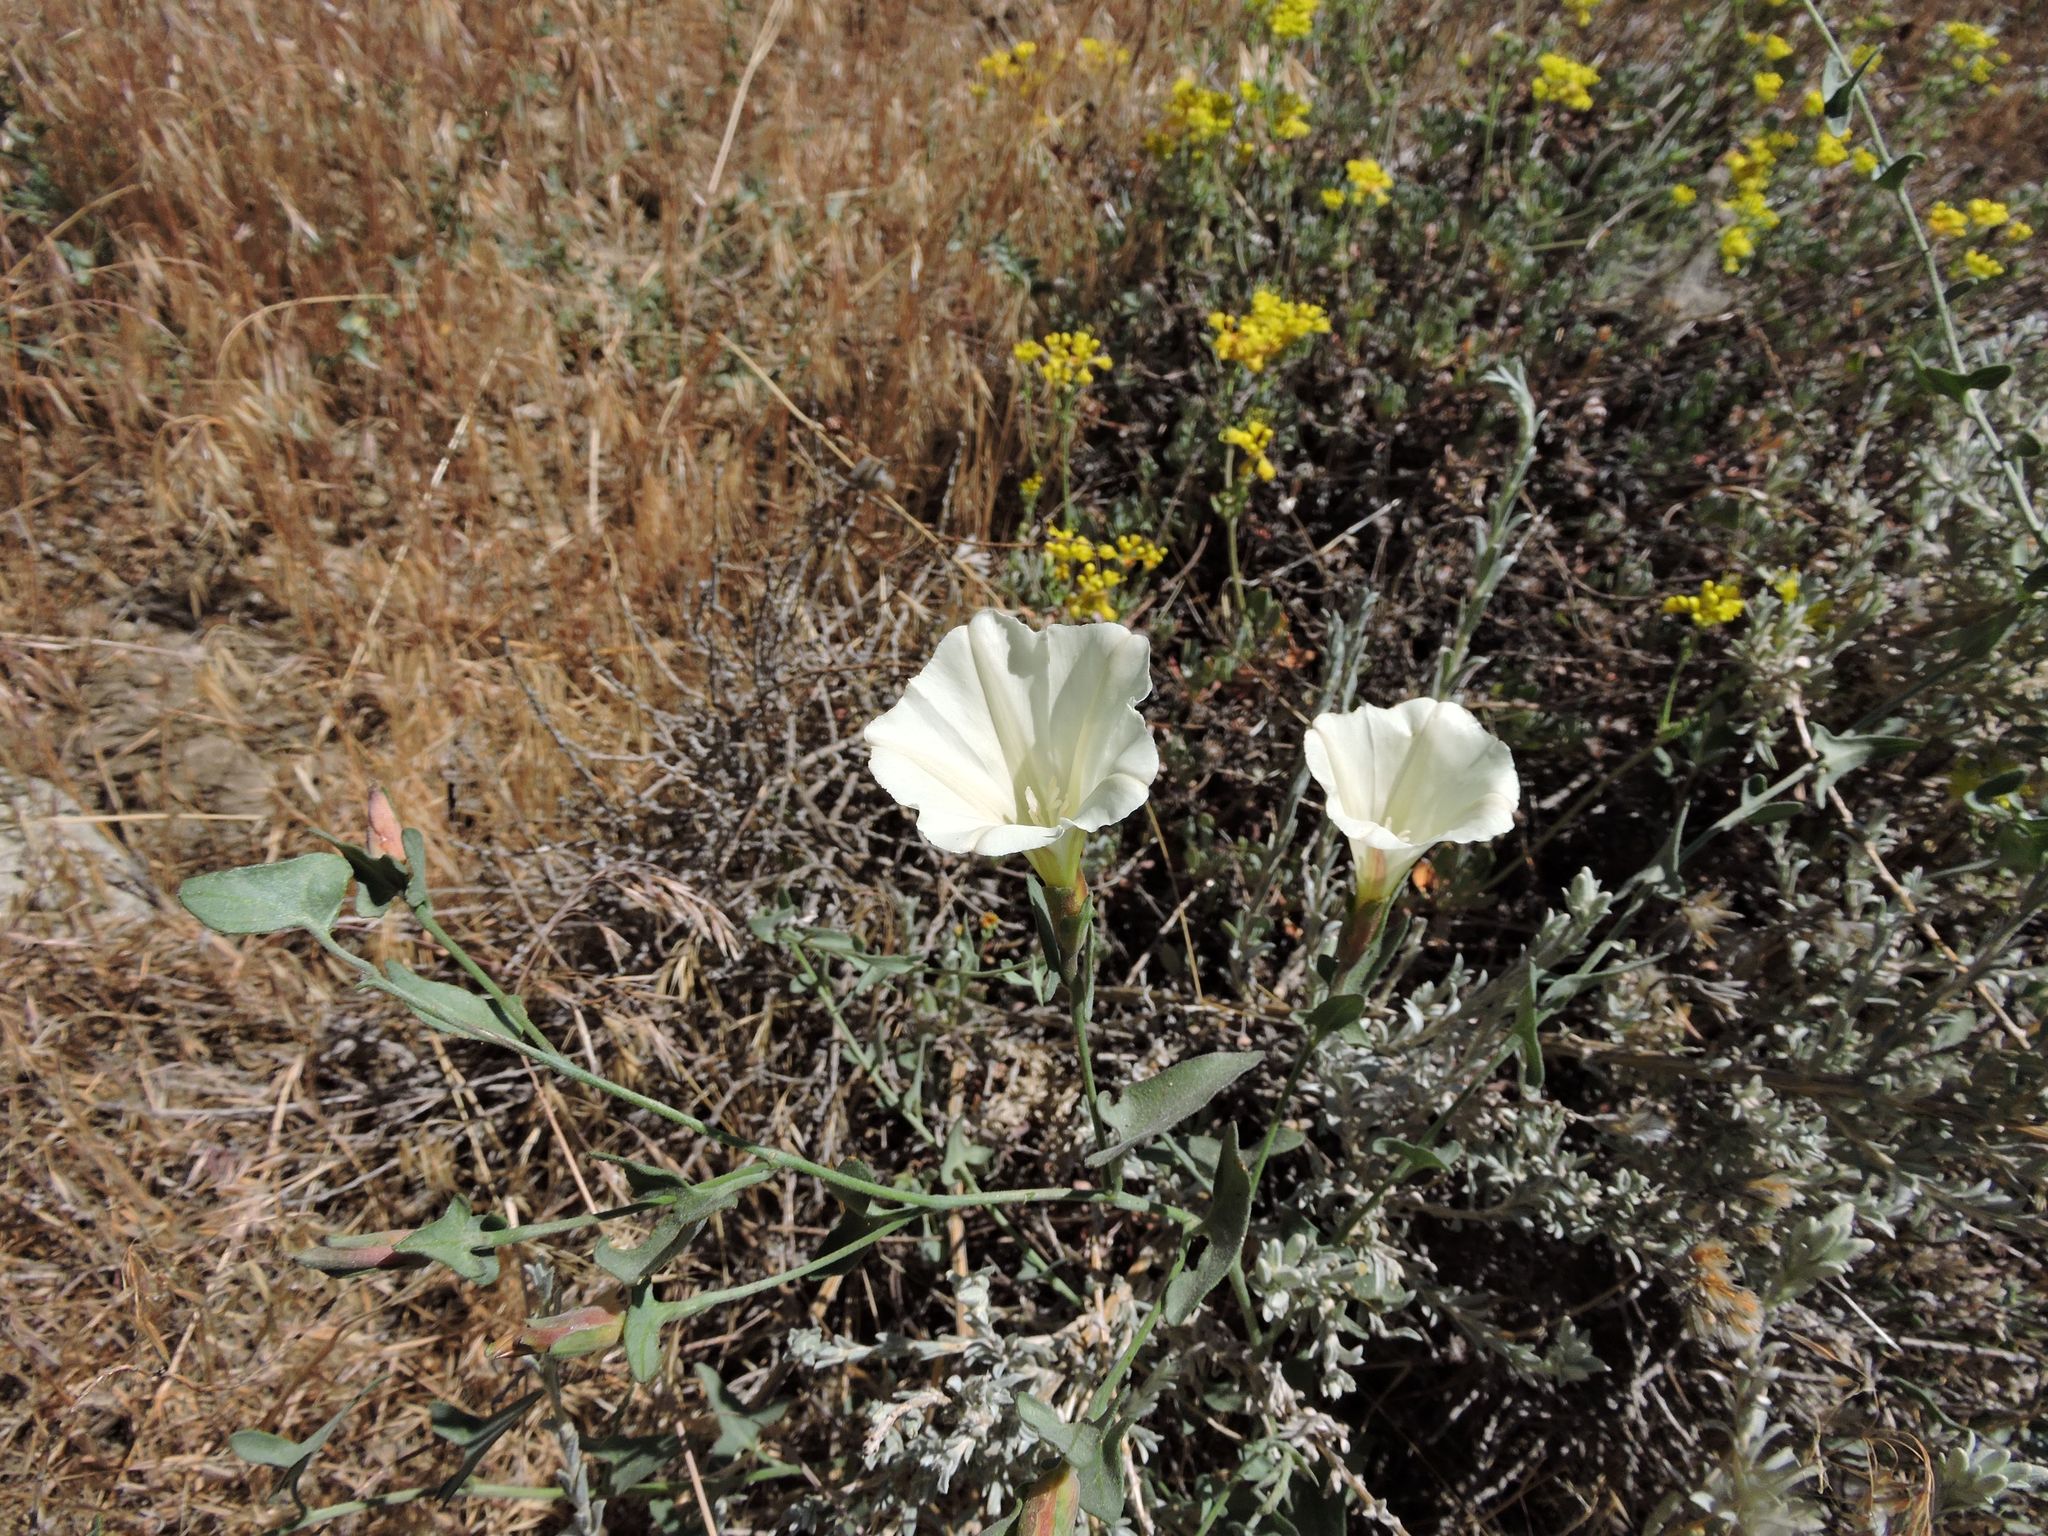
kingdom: Plantae
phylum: Tracheophyta
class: Magnoliopsida
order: Solanales
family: Convolvulaceae
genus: Calystegia
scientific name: Calystegia malacophylla
